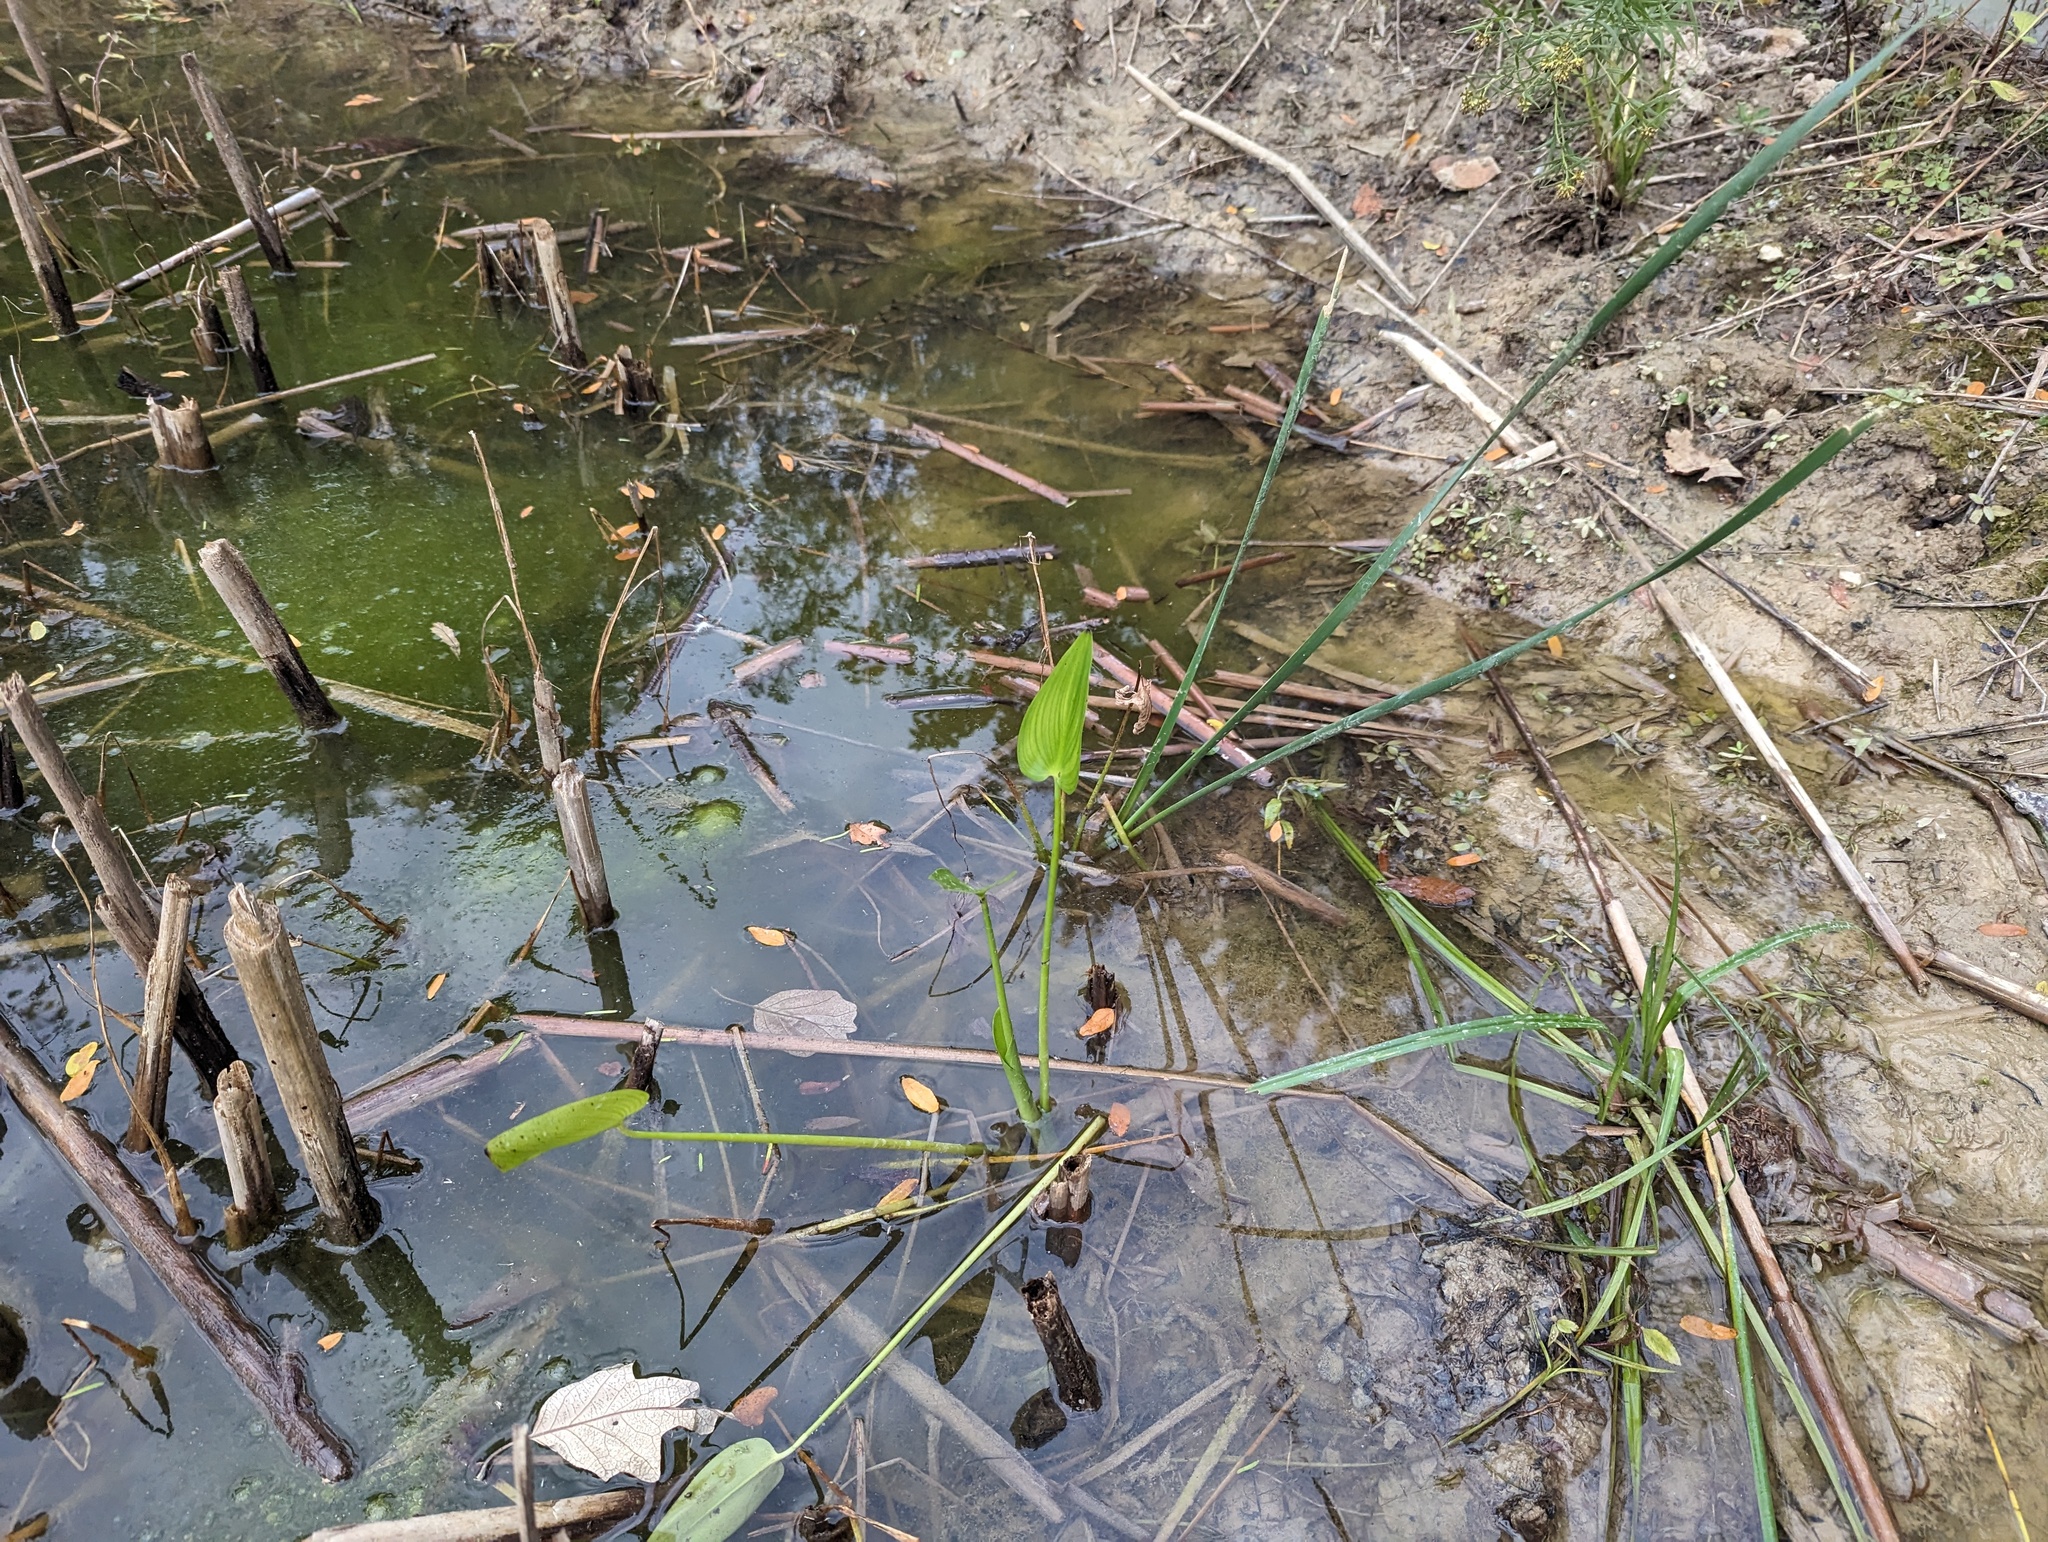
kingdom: Plantae
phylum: Tracheophyta
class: Liliopsida
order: Commelinales
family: Pontederiaceae
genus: Pontederia
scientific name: Pontederia cordata
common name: Pickerelweed
